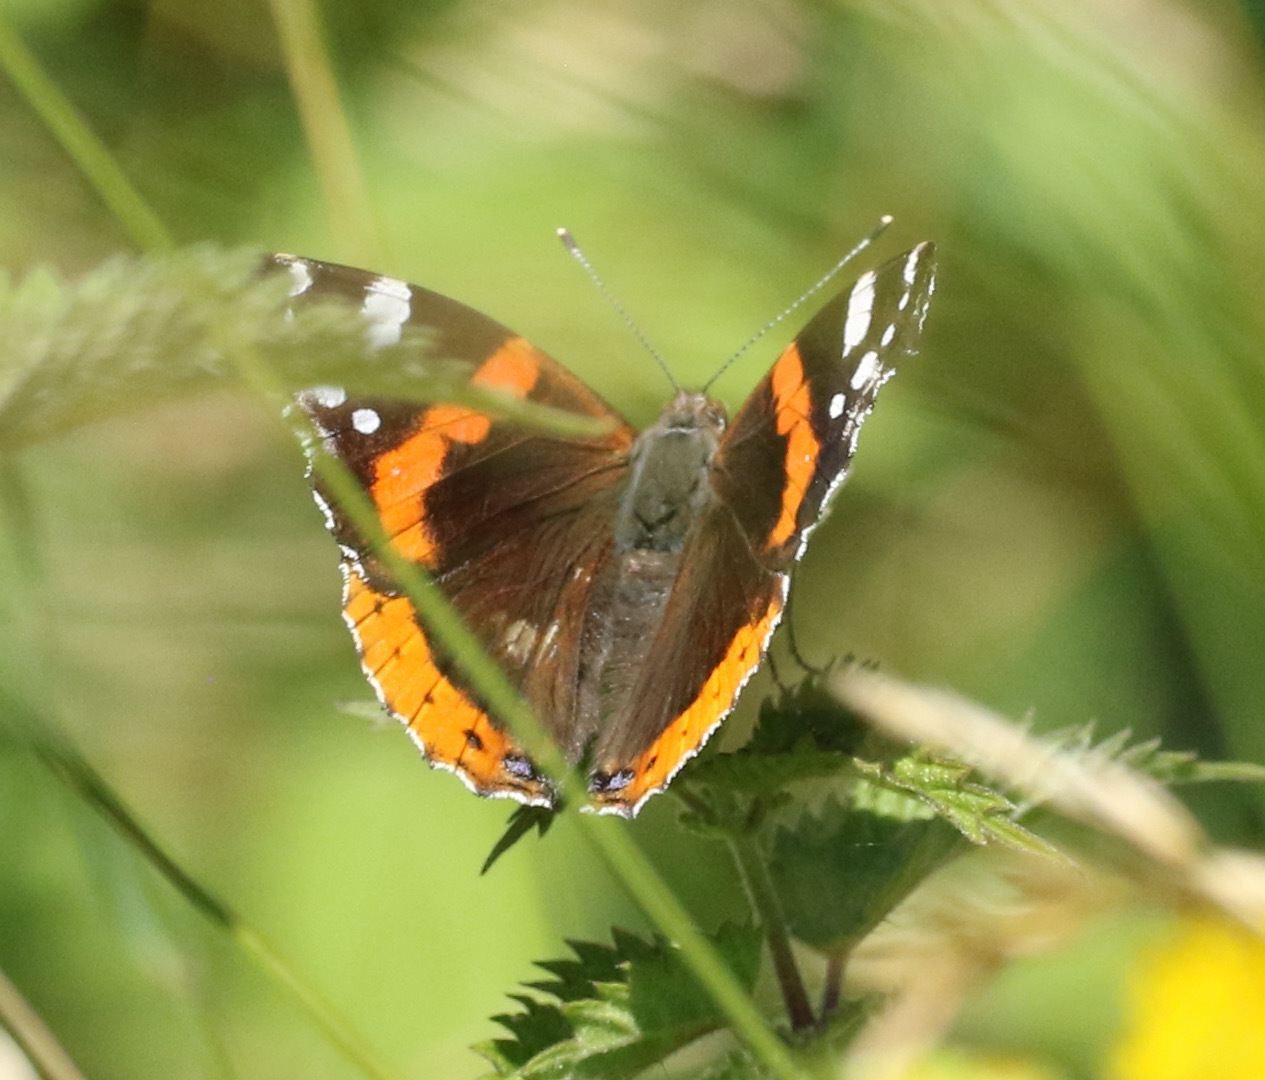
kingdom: Animalia
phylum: Arthropoda
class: Insecta
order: Lepidoptera
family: Nymphalidae
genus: Vanessa
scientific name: Vanessa atalanta
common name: Red admiral
